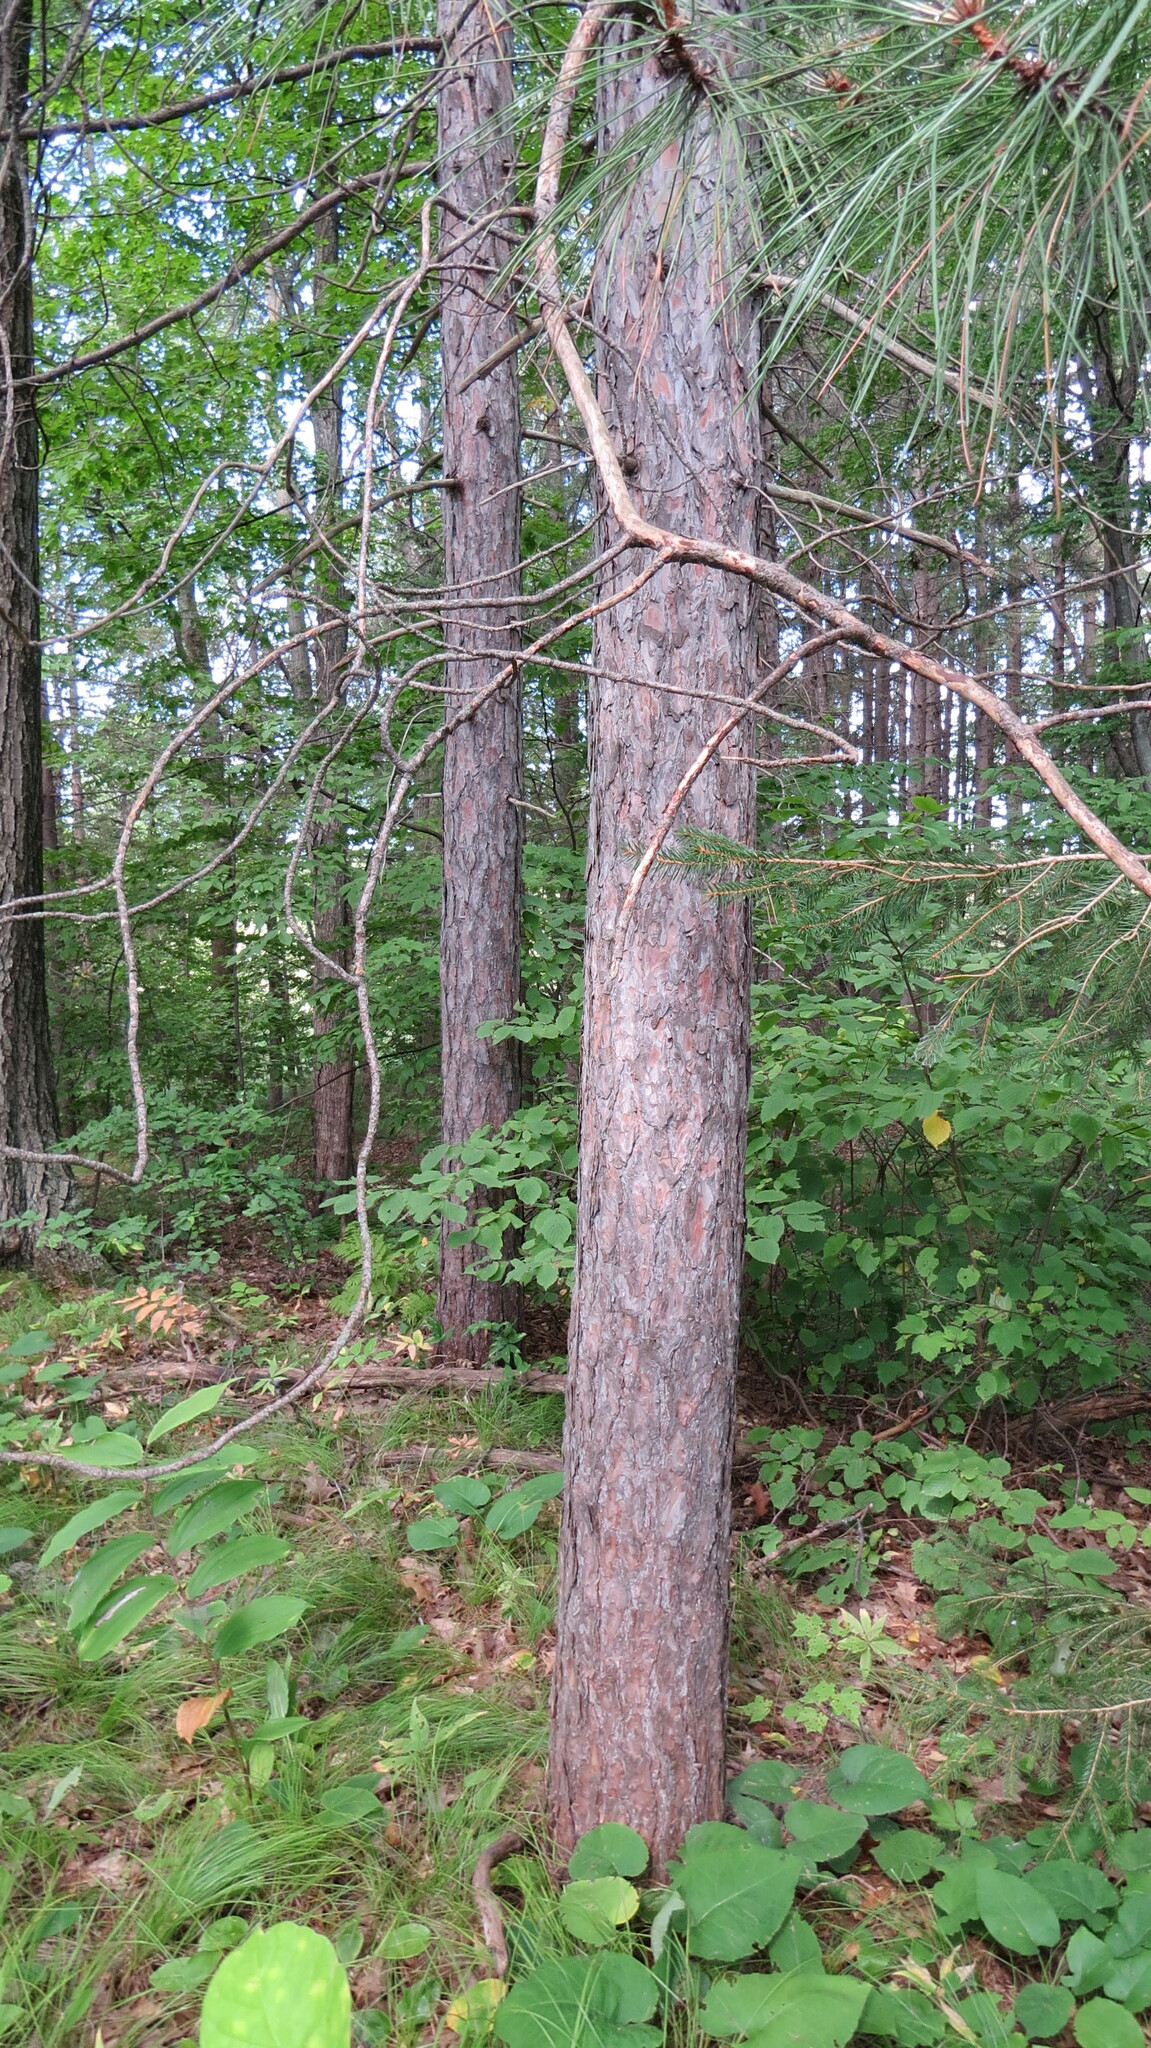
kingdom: Plantae
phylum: Tracheophyta
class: Pinopsida
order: Pinales
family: Pinaceae
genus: Pinus
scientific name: Pinus resinosa
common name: Norway pine
